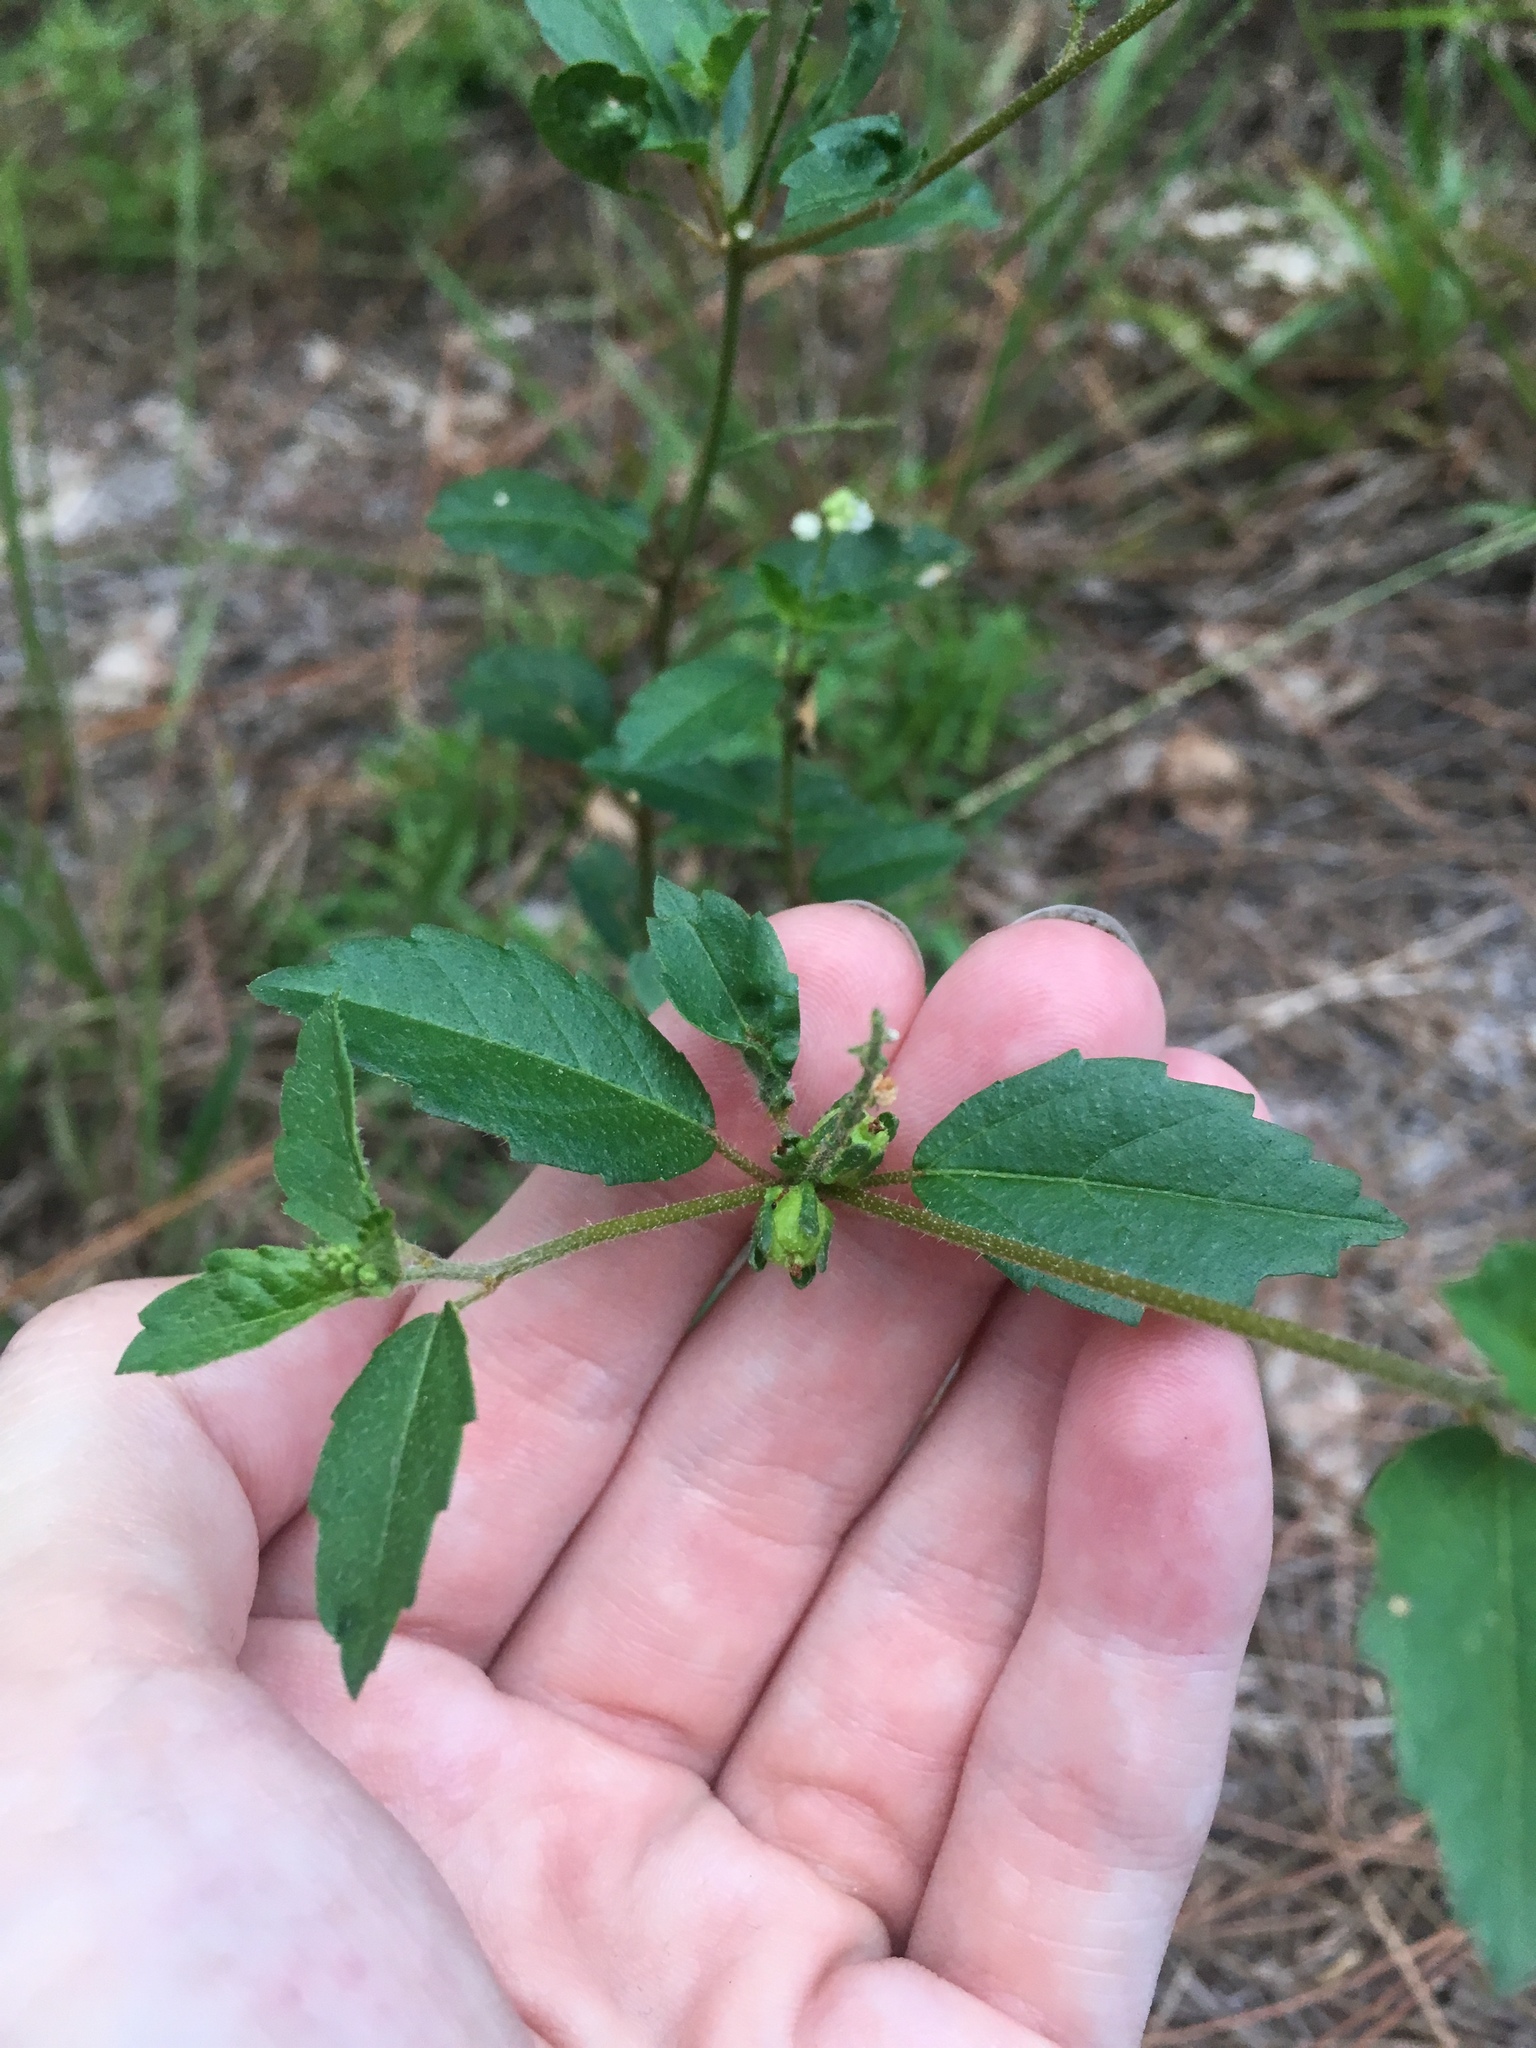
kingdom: Plantae
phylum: Tracheophyta
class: Magnoliopsida
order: Malpighiales
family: Euphorbiaceae
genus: Croton
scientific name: Croton glandulosus
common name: Tropic croton
